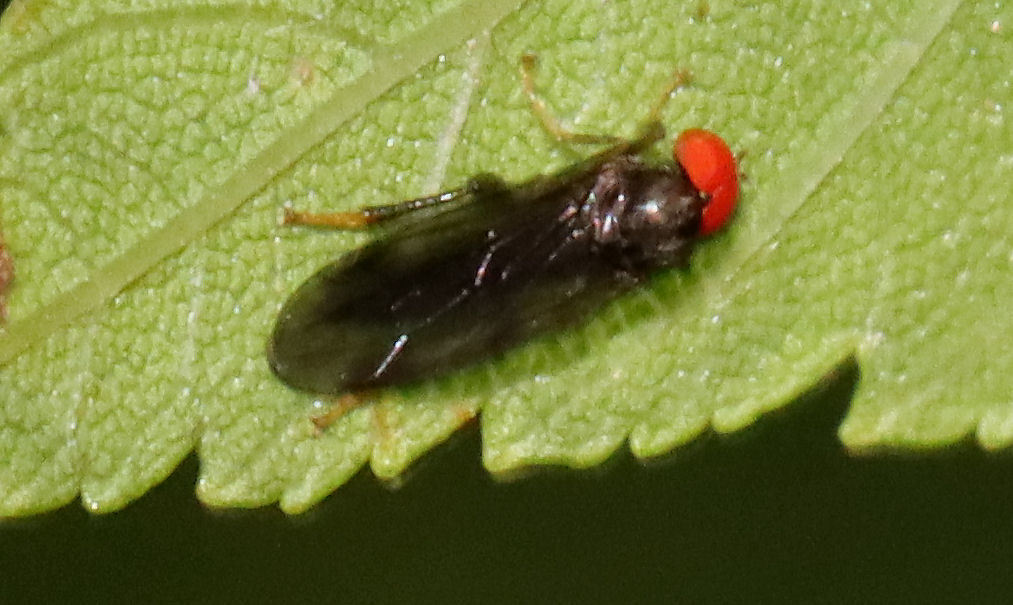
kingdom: Animalia
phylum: Arthropoda
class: Insecta
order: Diptera
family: Hybotidae
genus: Syneches
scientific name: Syneches thoracicus
